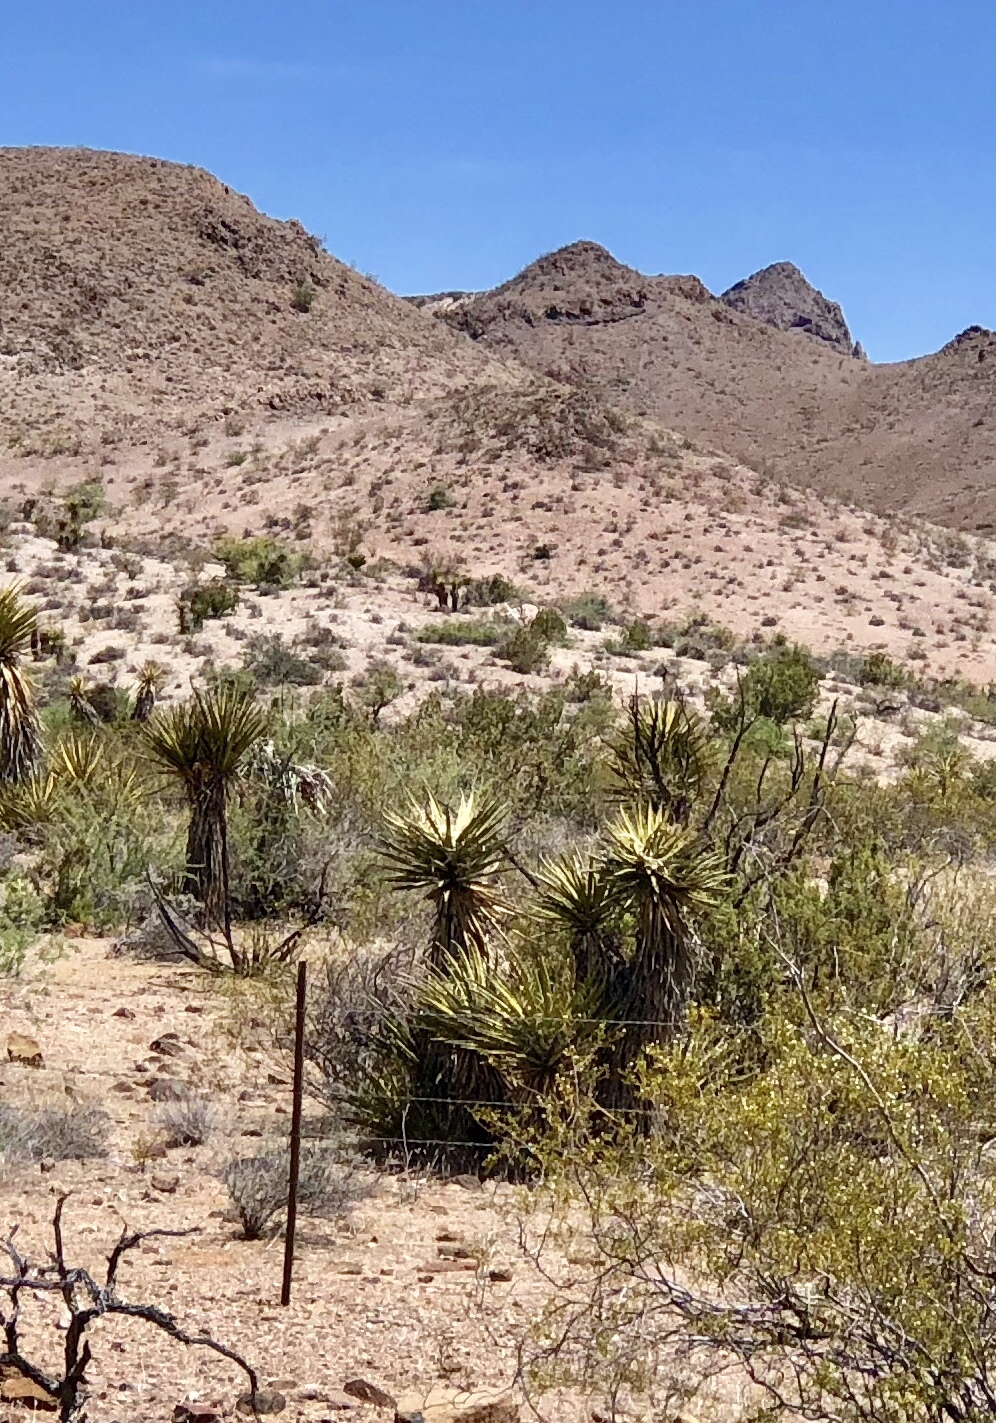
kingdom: Plantae
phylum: Tracheophyta
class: Liliopsida
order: Asparagales
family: Asparagaceae
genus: Yucca
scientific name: Yucca schidigera
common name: Mojave yucca
